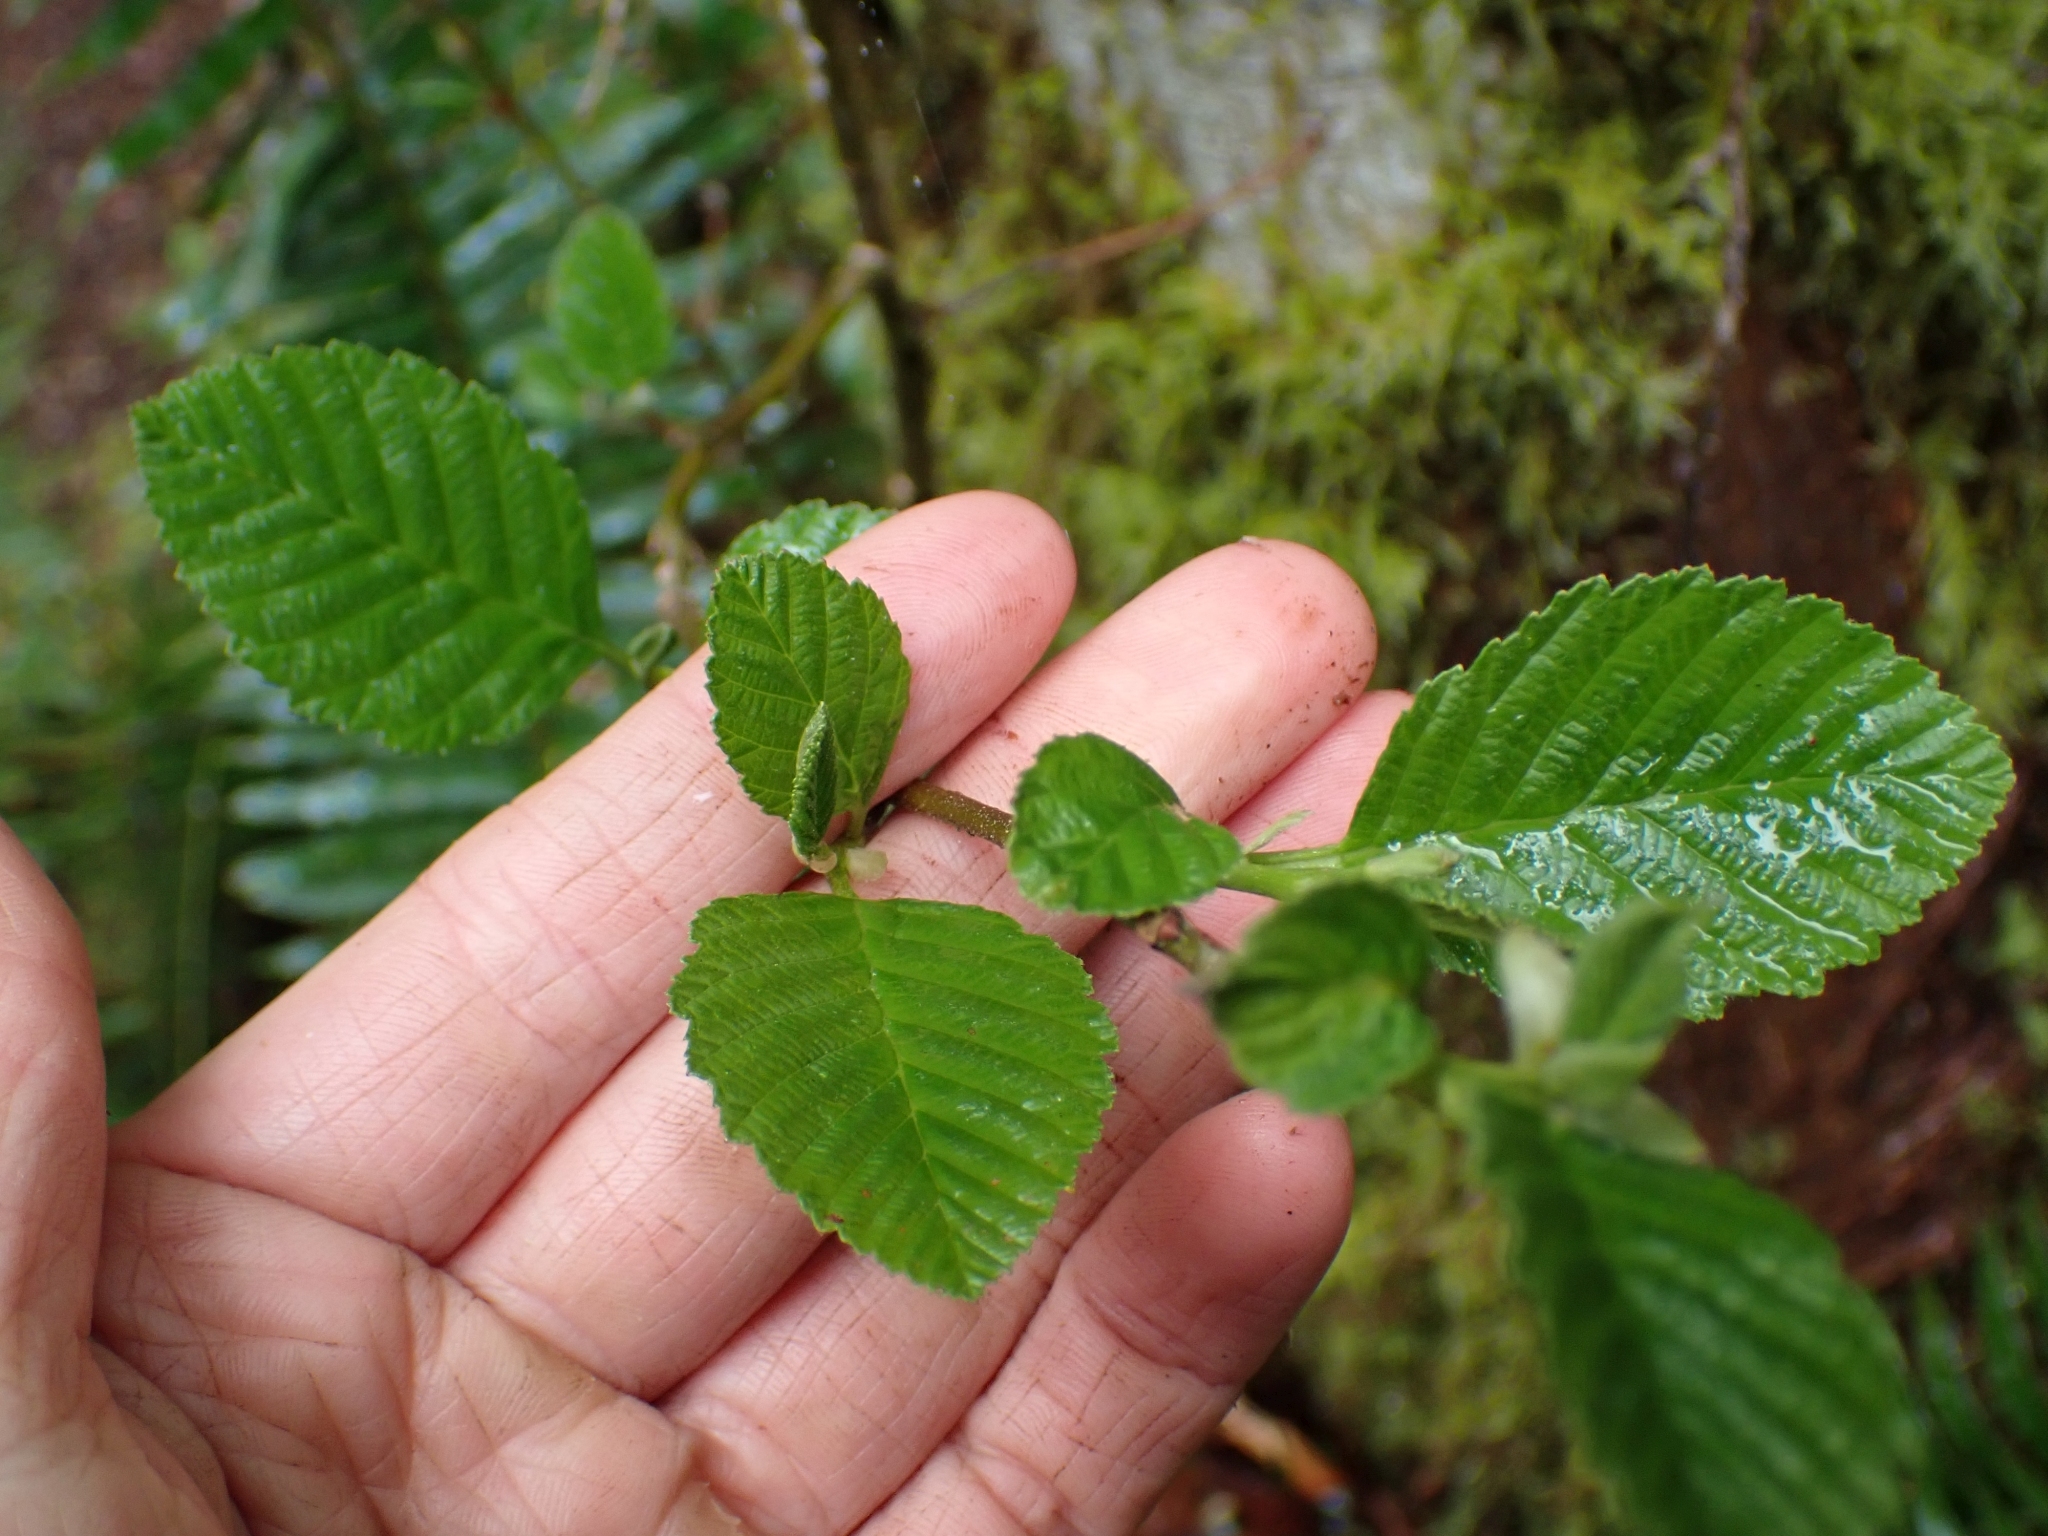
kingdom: Plantae
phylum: Tracheophyta
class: Magnoliopsida
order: Fagales
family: Betulaceae
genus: Alnus
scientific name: Alnus rubra
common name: Red alder
